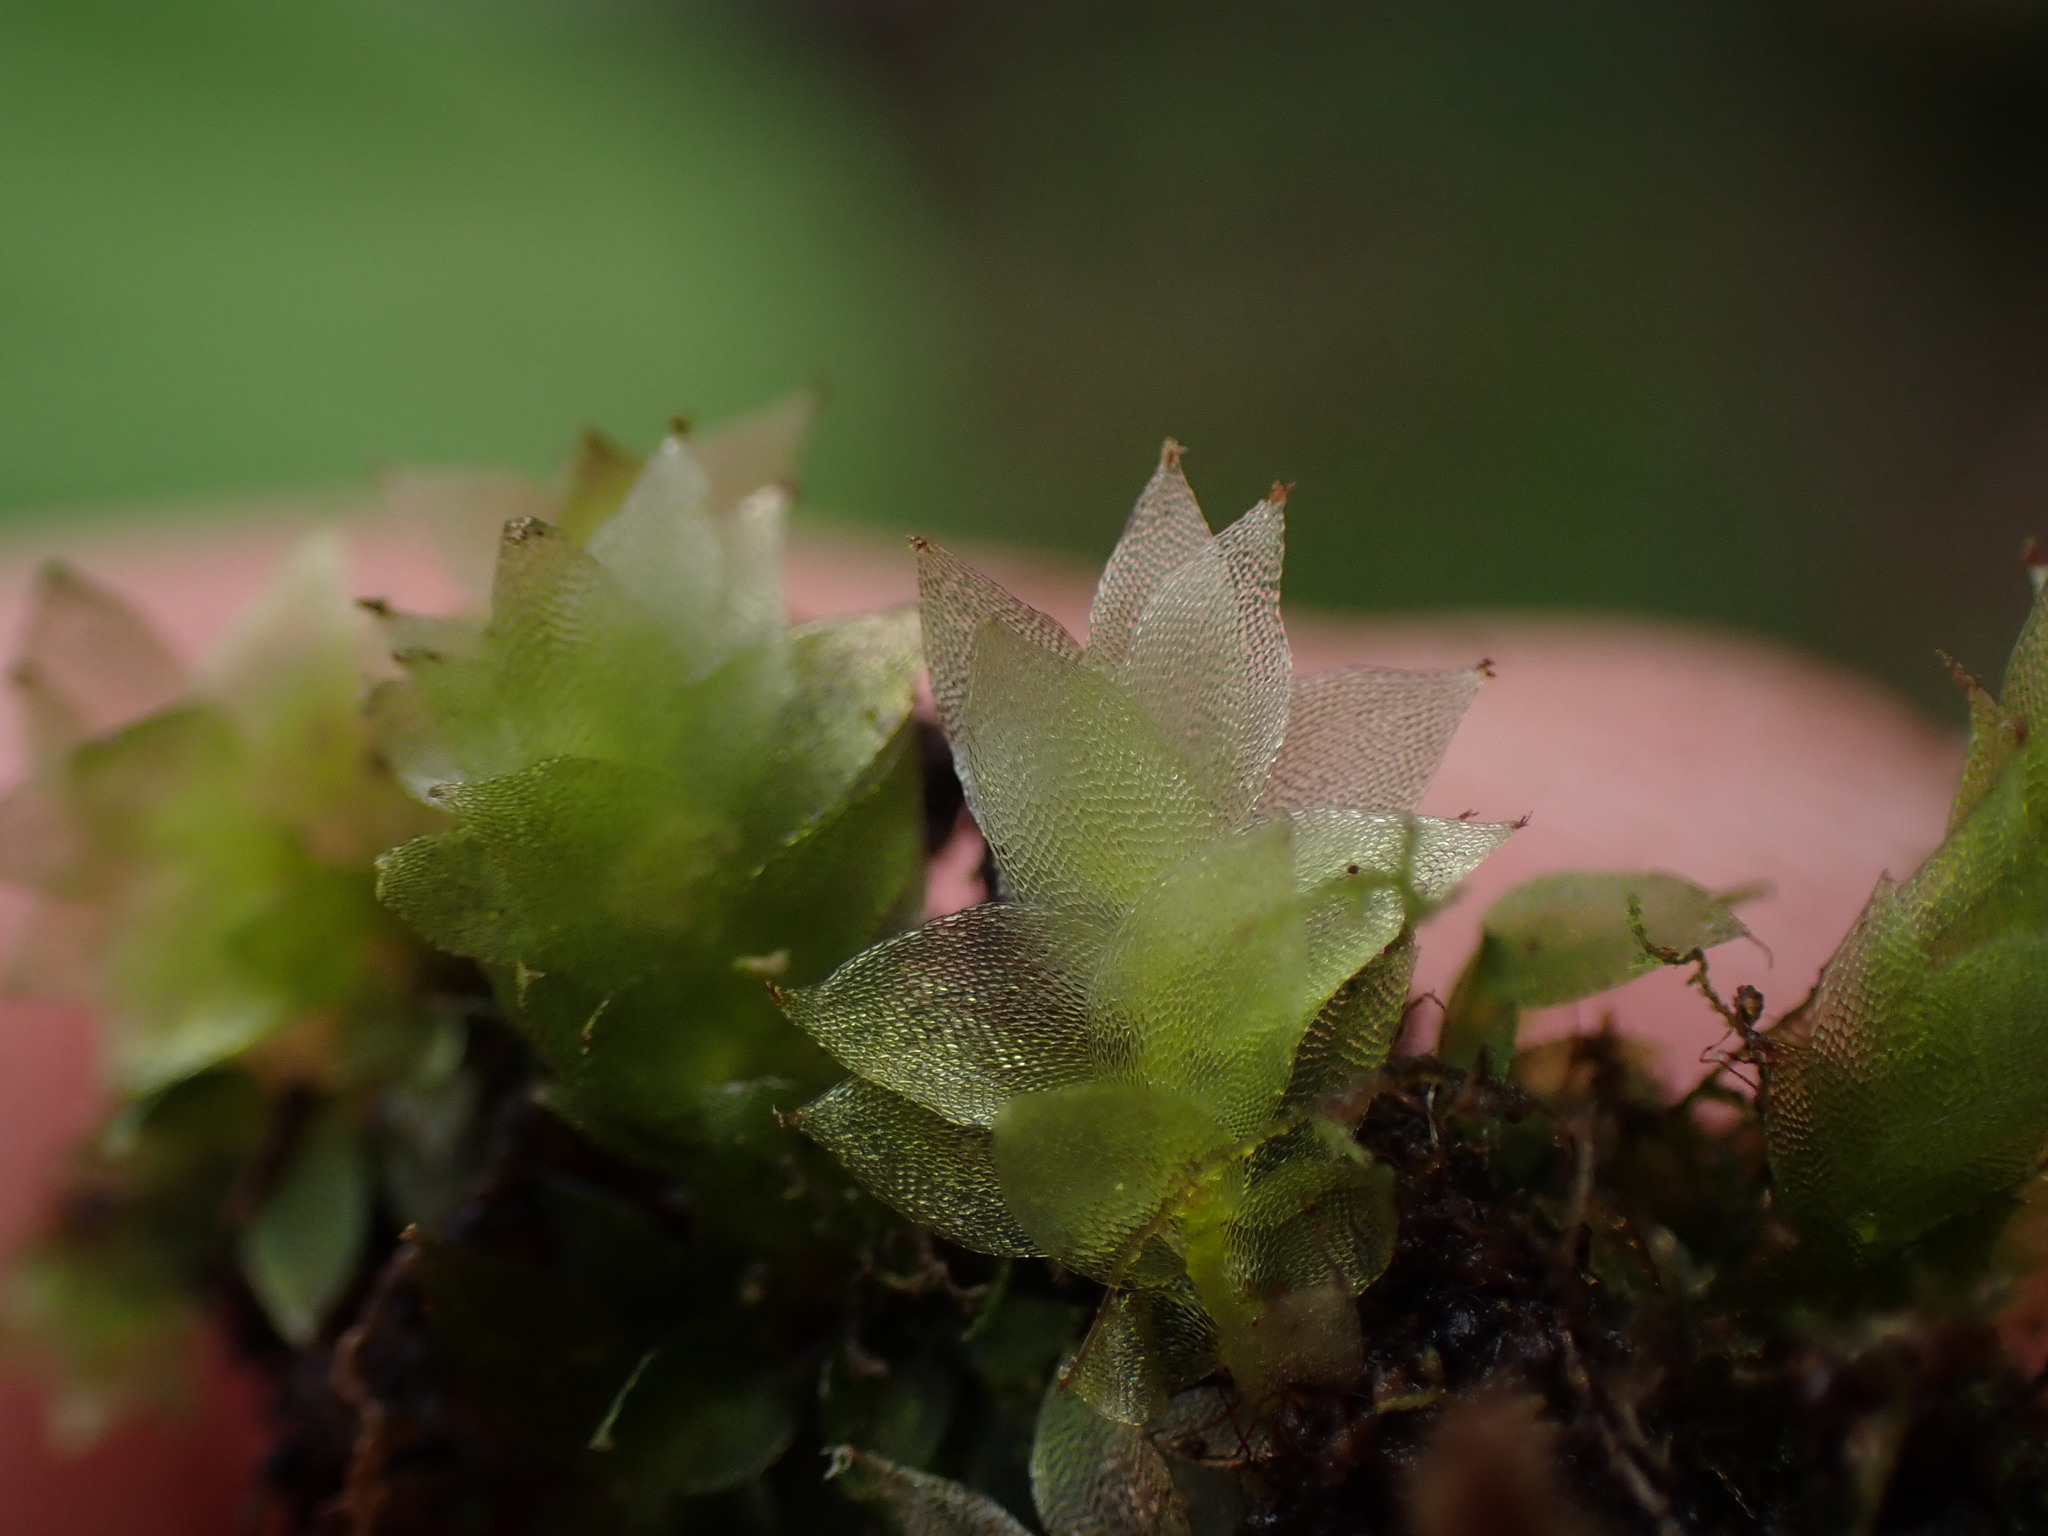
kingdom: Plantae
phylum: Bryophyta
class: Bryopsida
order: Hookeriales
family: Hookeriaceae
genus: Hookeria
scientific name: Hookeria acutifolia
